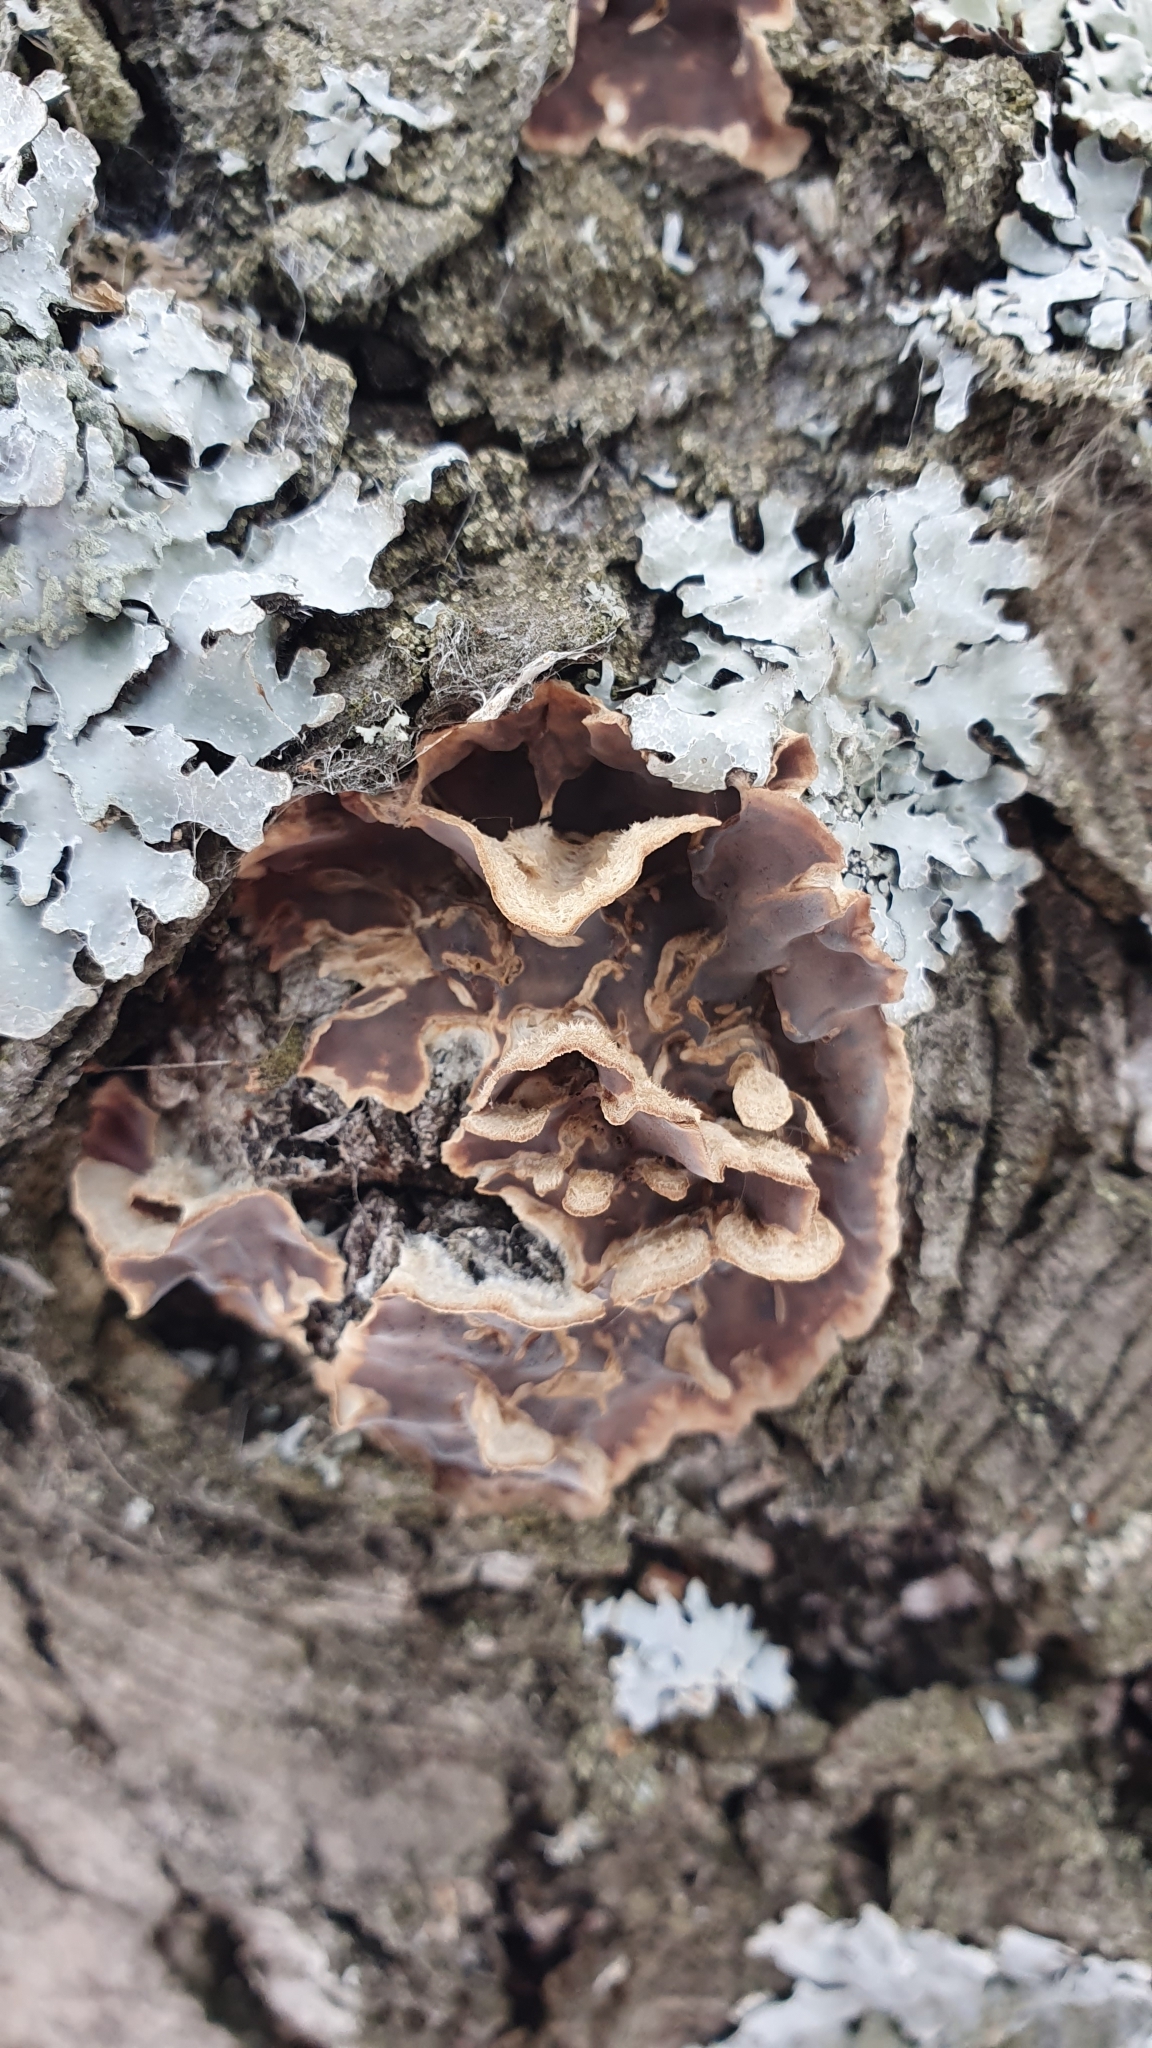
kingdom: Fungi
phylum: Basidiomycota
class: Agaricomycetes
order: Agaricales
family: Cyphellaceae
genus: Chondrostereum
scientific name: Chondrostereum purpureum
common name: Silver leaf disease
